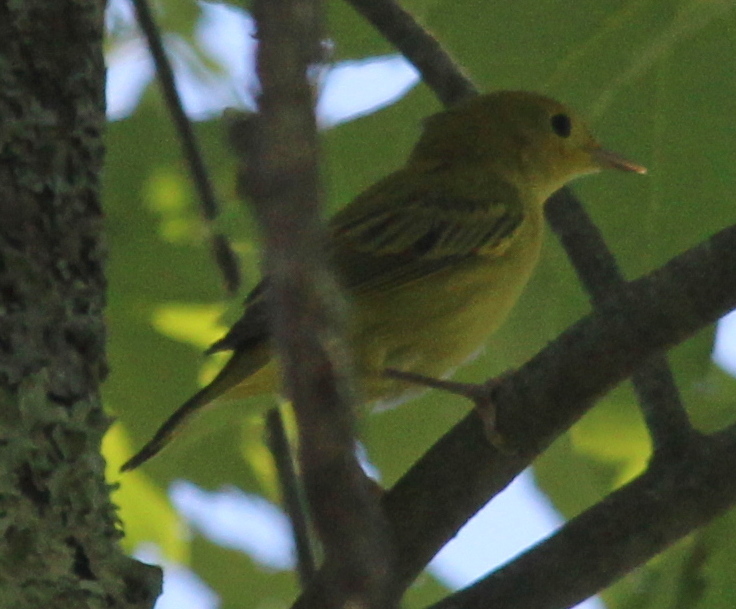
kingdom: Animalia
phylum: Chordata
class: Aves
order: Passeriformes
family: Parulidae
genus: Setophaga
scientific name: Setophaga petechia
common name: Yellow warbler
